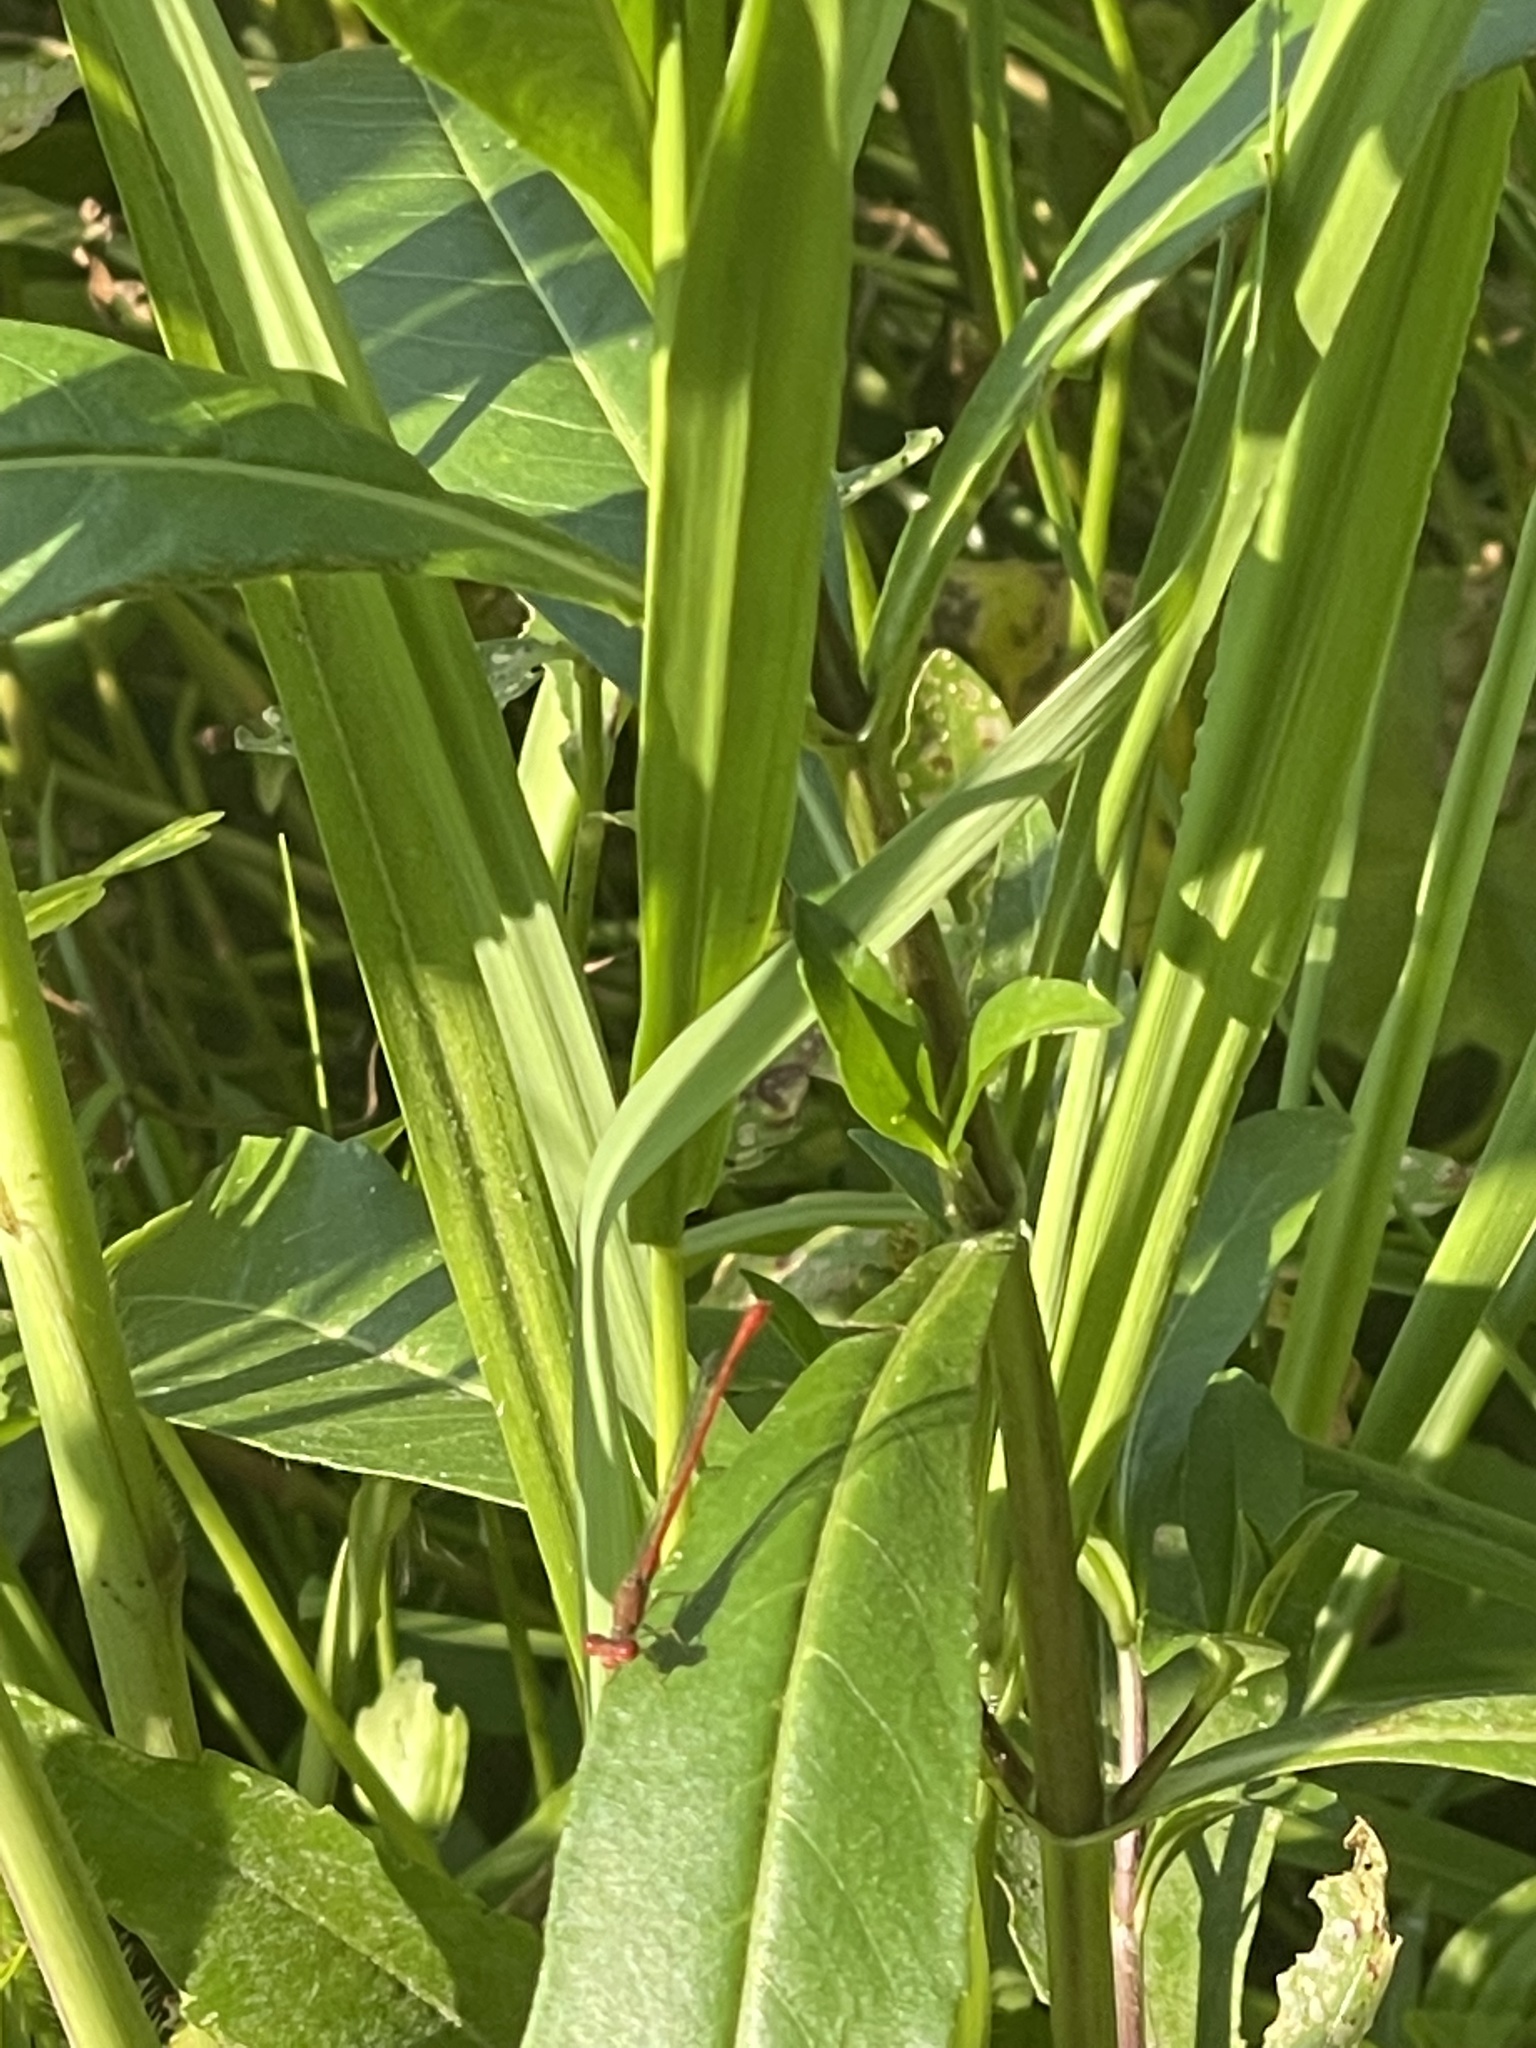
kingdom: Animalia
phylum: Arthropoda
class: Insecta
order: Odonata
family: Coenagrionidae
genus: Telebasis
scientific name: Telebasis byersi
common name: Duckweed firetail
